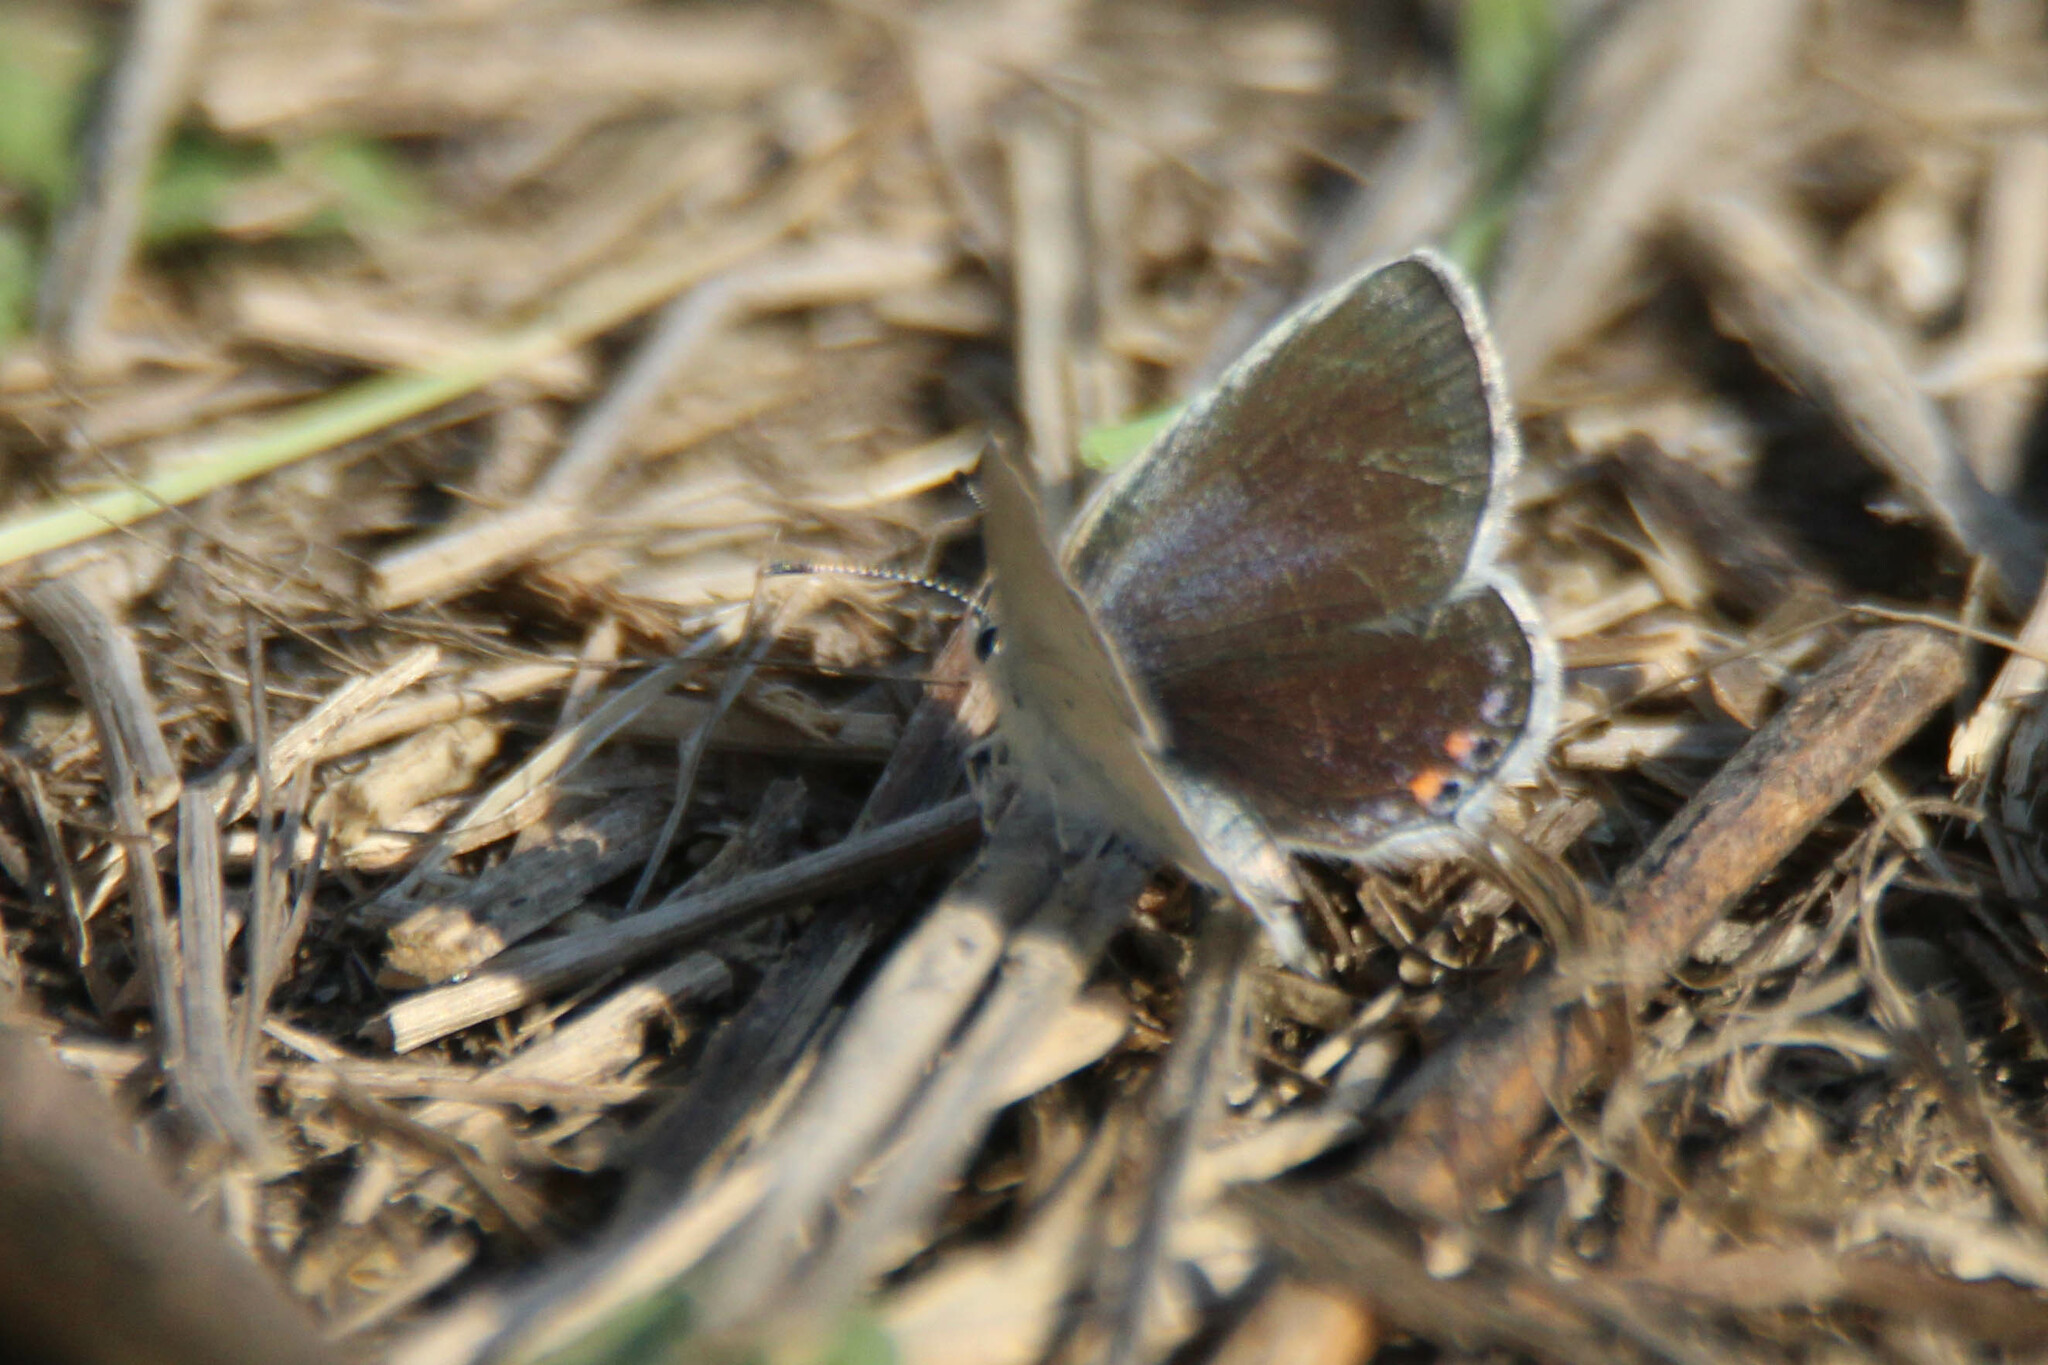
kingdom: Animalia
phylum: Arthropoda
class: Insecta
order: Lepidoptera
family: Lycaenidae
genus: Elkalyce
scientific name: Elkalyce argiades
